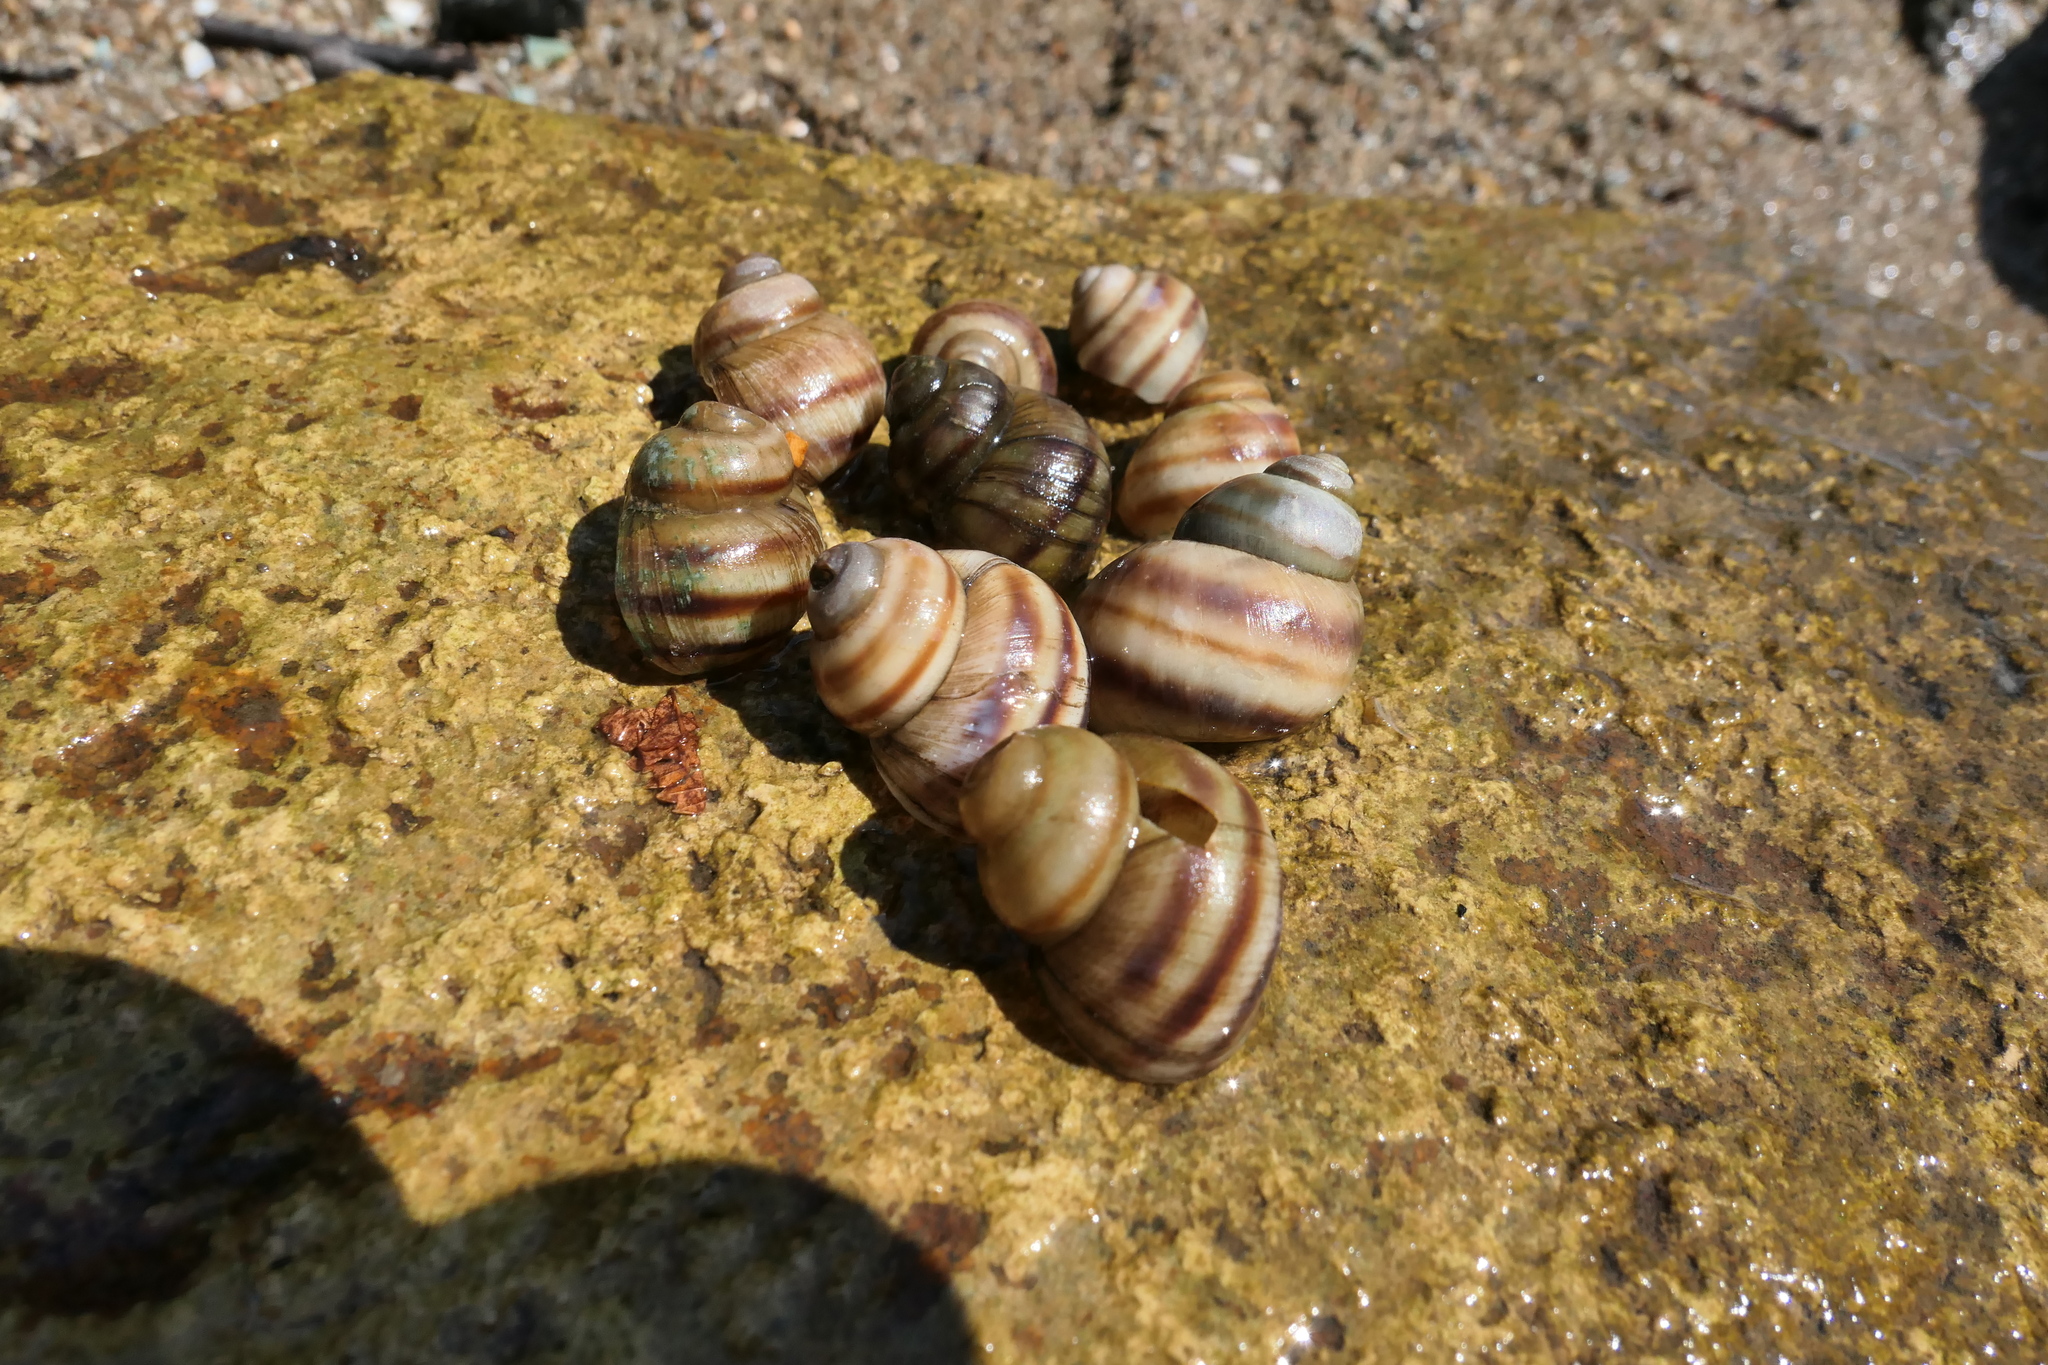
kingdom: Animalia
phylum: Mollusca
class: Gastropoda
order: Architaenioglossa
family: Viviparidae
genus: Viviparus
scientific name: Viviparus viviparus
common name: River snail
